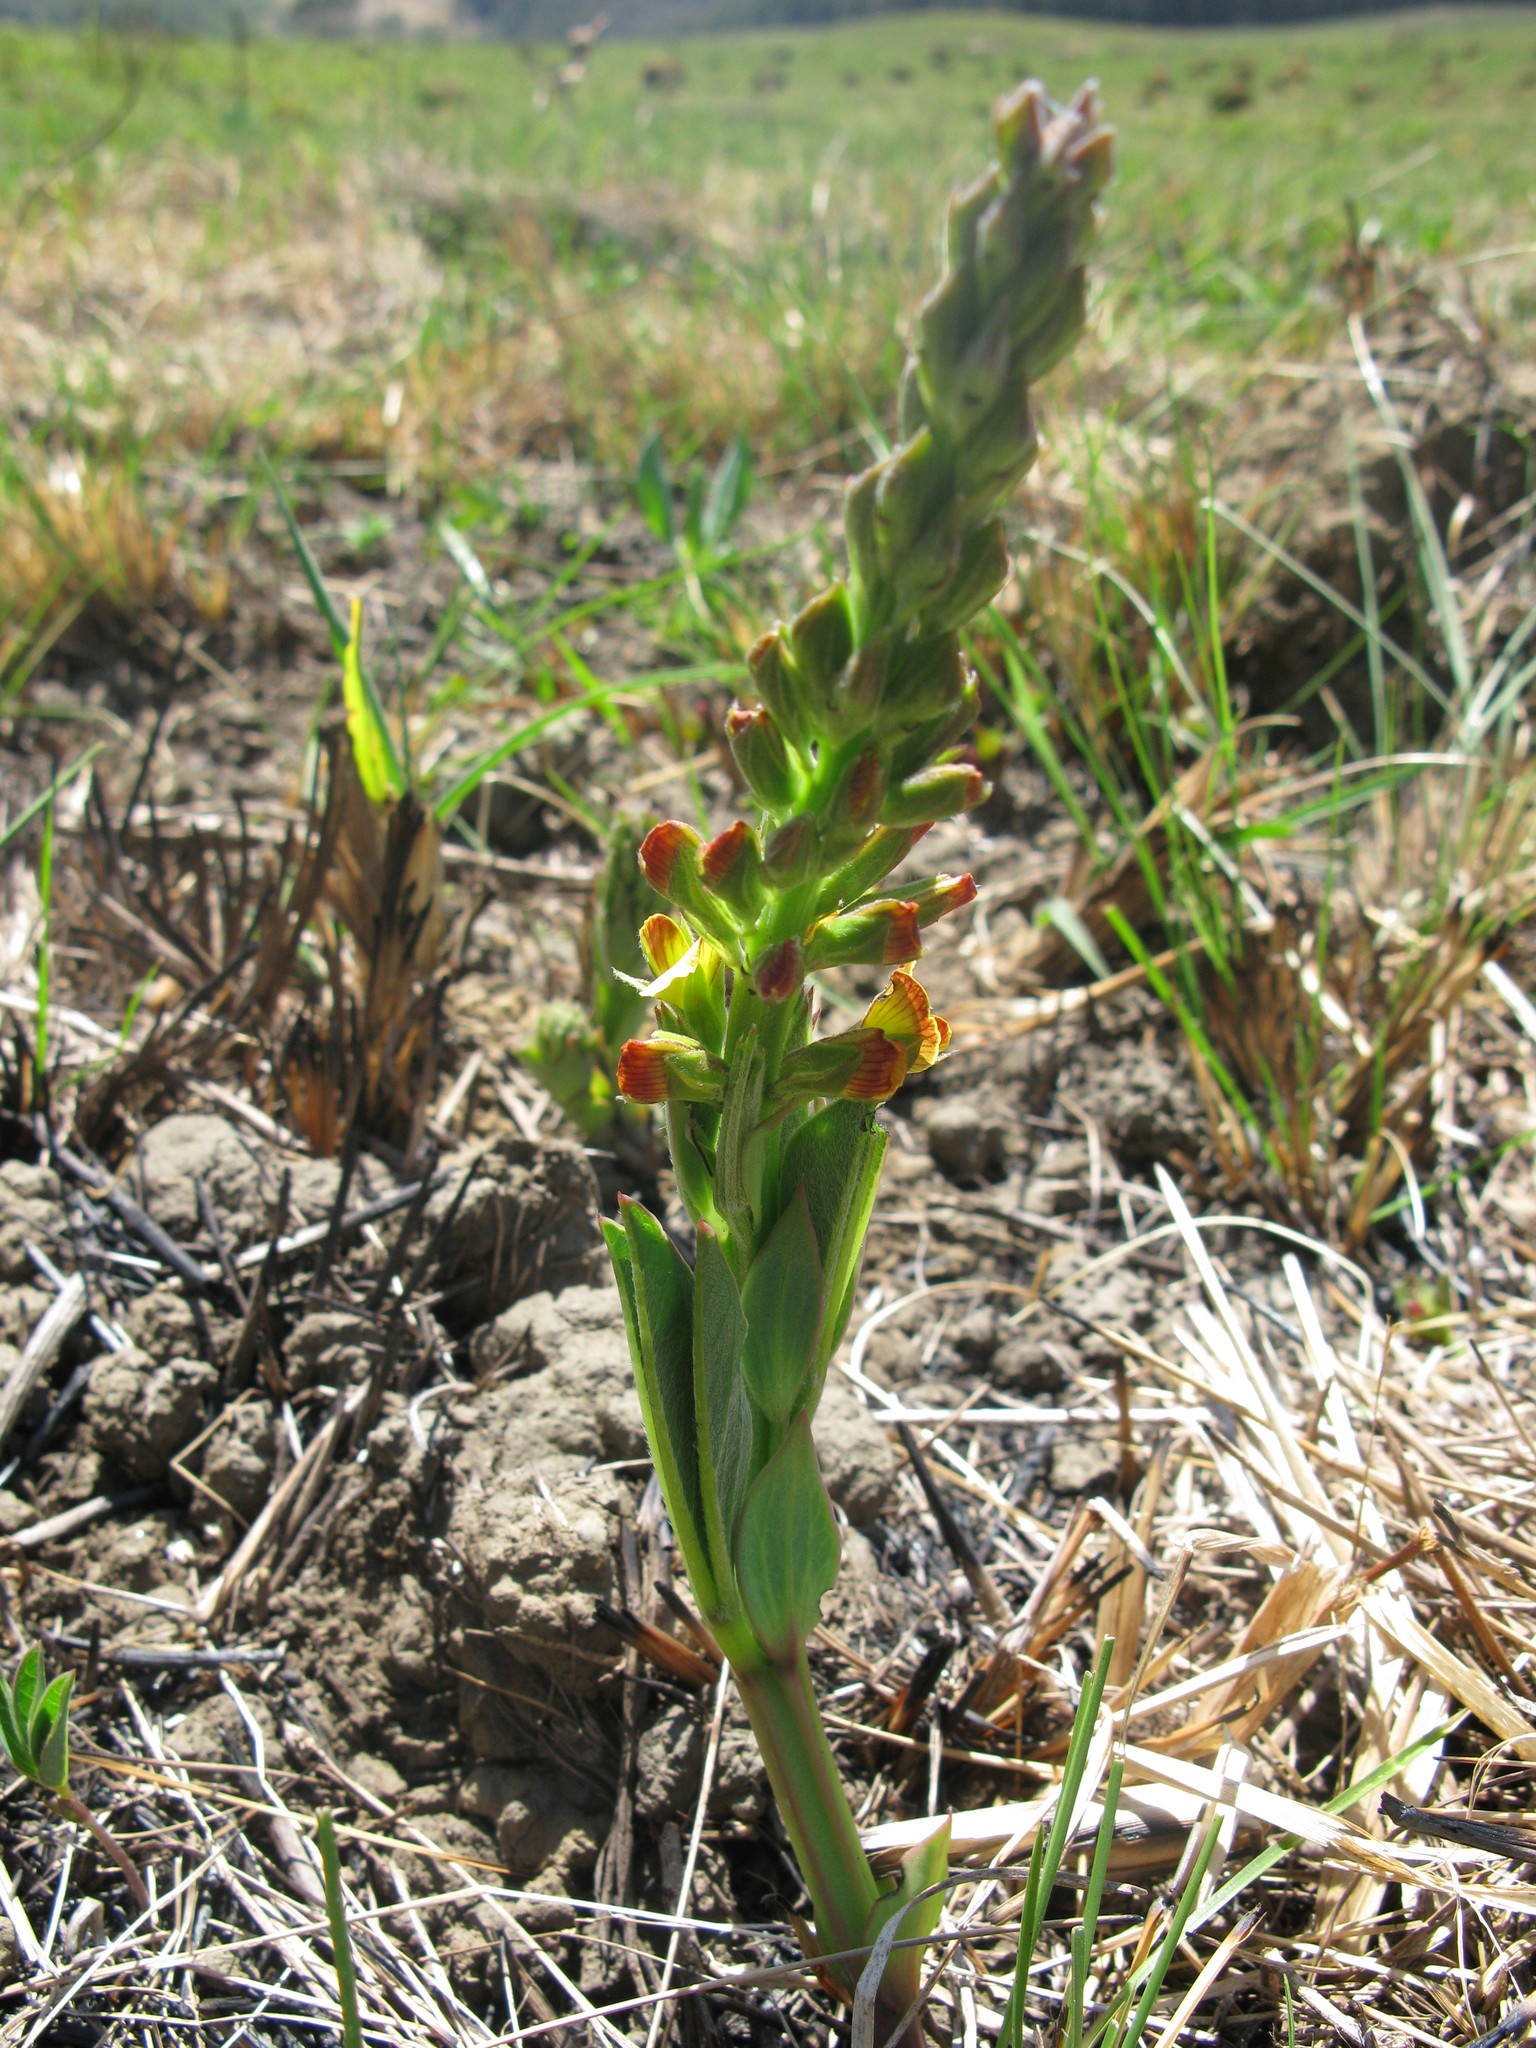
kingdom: Plantae
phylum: Tracheophyta
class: Magnoliopsida
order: Fabales
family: Fabaceae
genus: Argyrolobium
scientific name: Argyrolobium robustum
